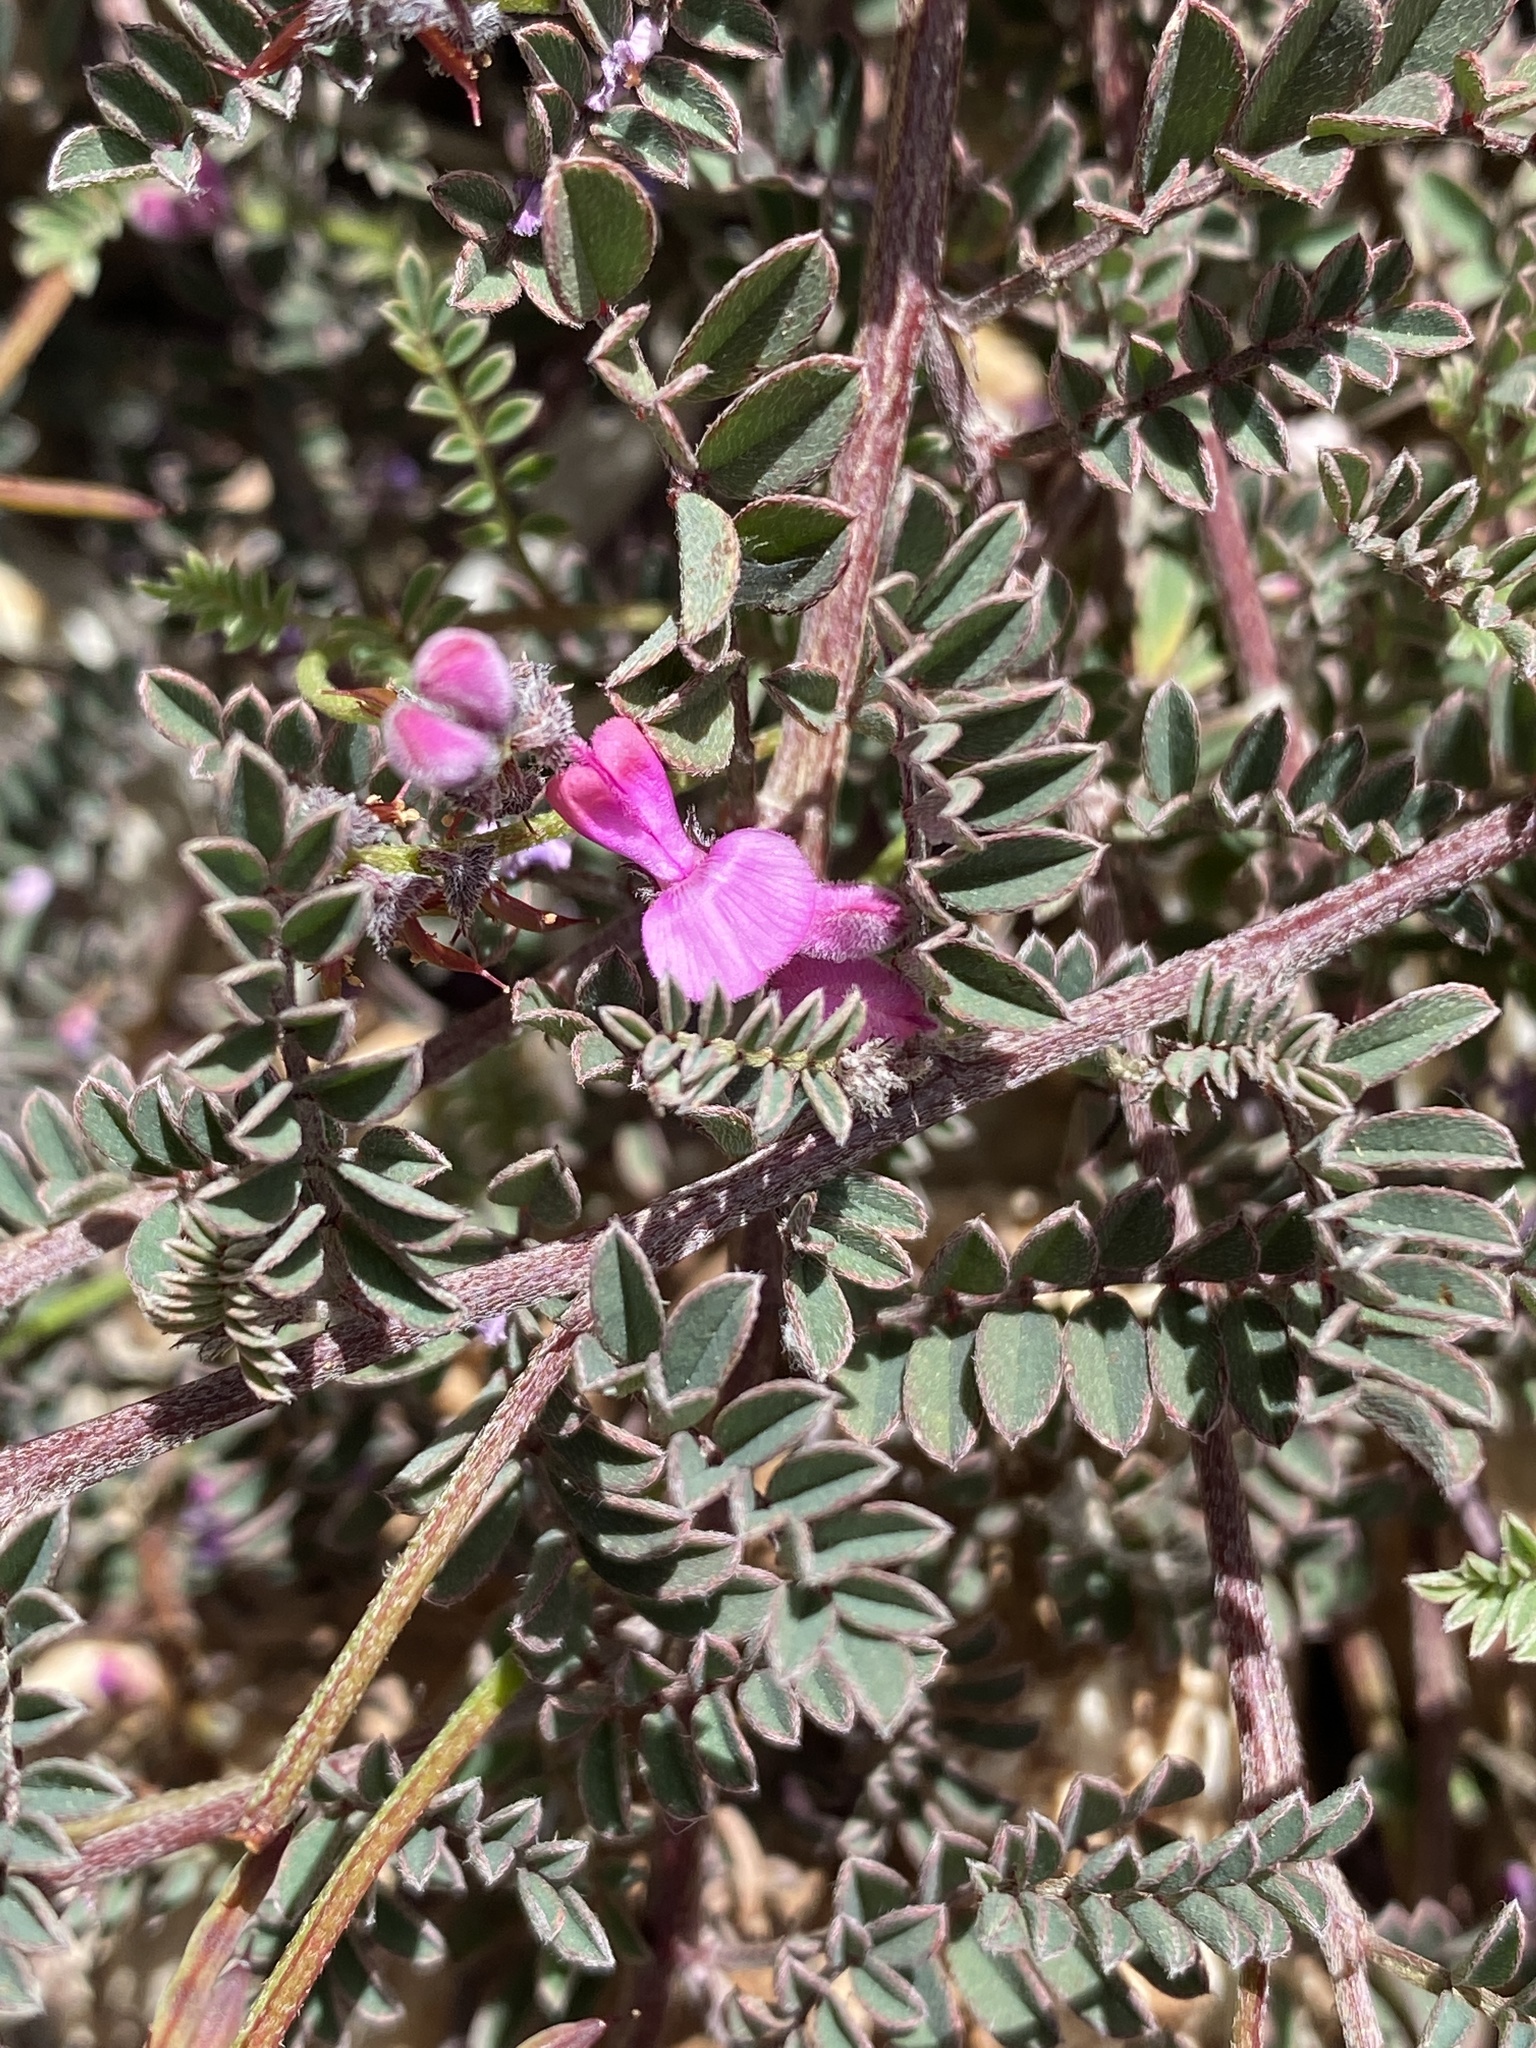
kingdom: Plantae
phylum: Tracheophyta
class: Magnoliopsida
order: Fabales
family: Fabaceae
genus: Indigofera
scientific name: Indigofera declinata
